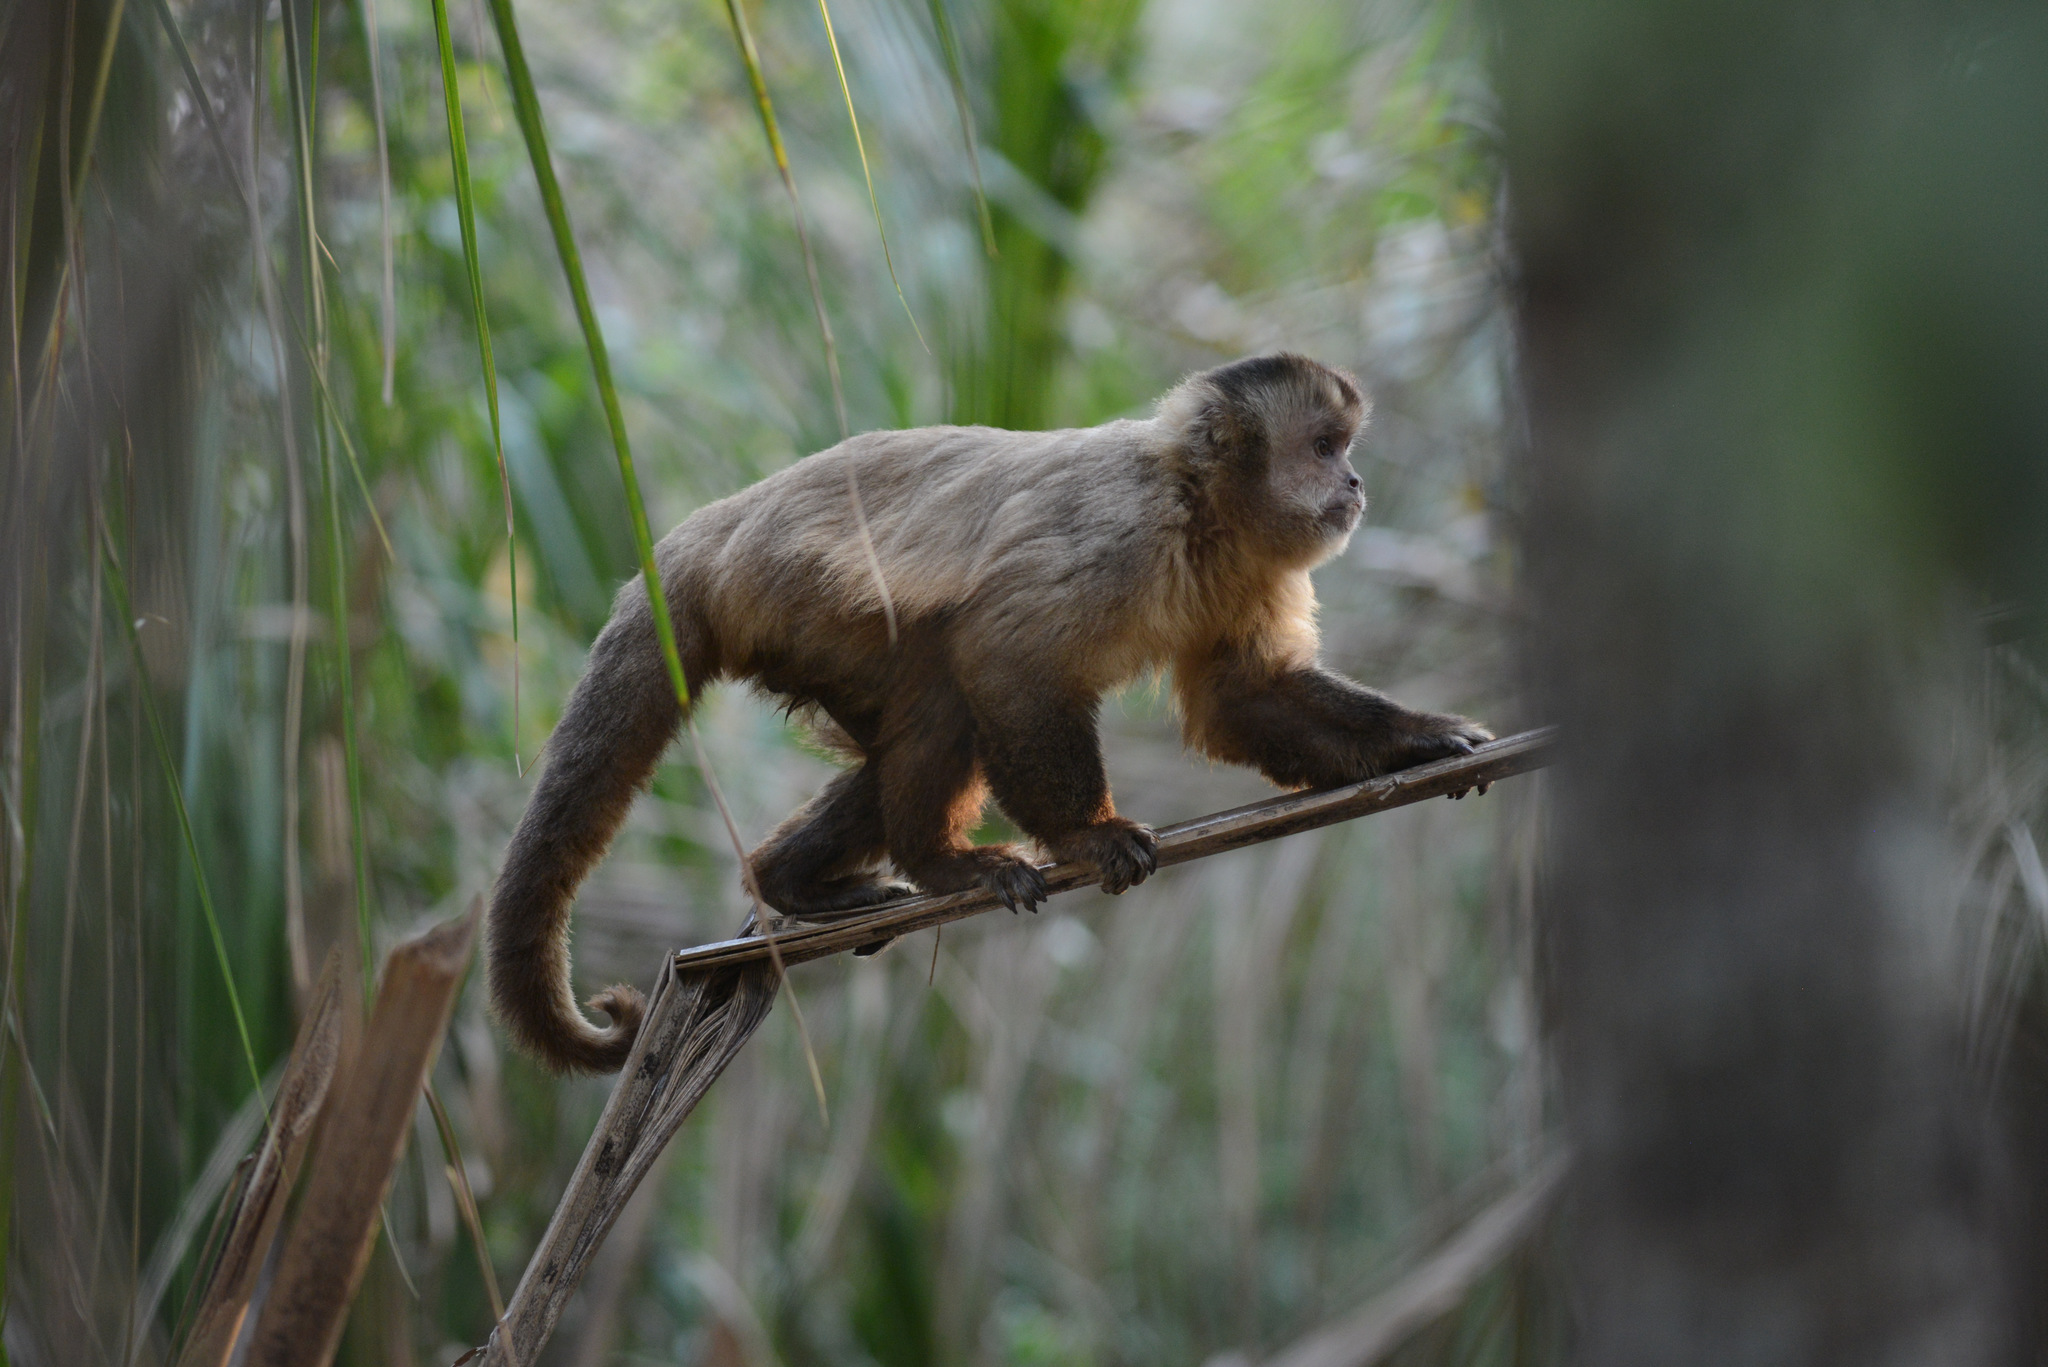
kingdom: Animalia
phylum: Chordata
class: Mammalia
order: Primates
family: Cebidae
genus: Sapajus
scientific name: Sapajus libidinosus
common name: Bearded capuchin
